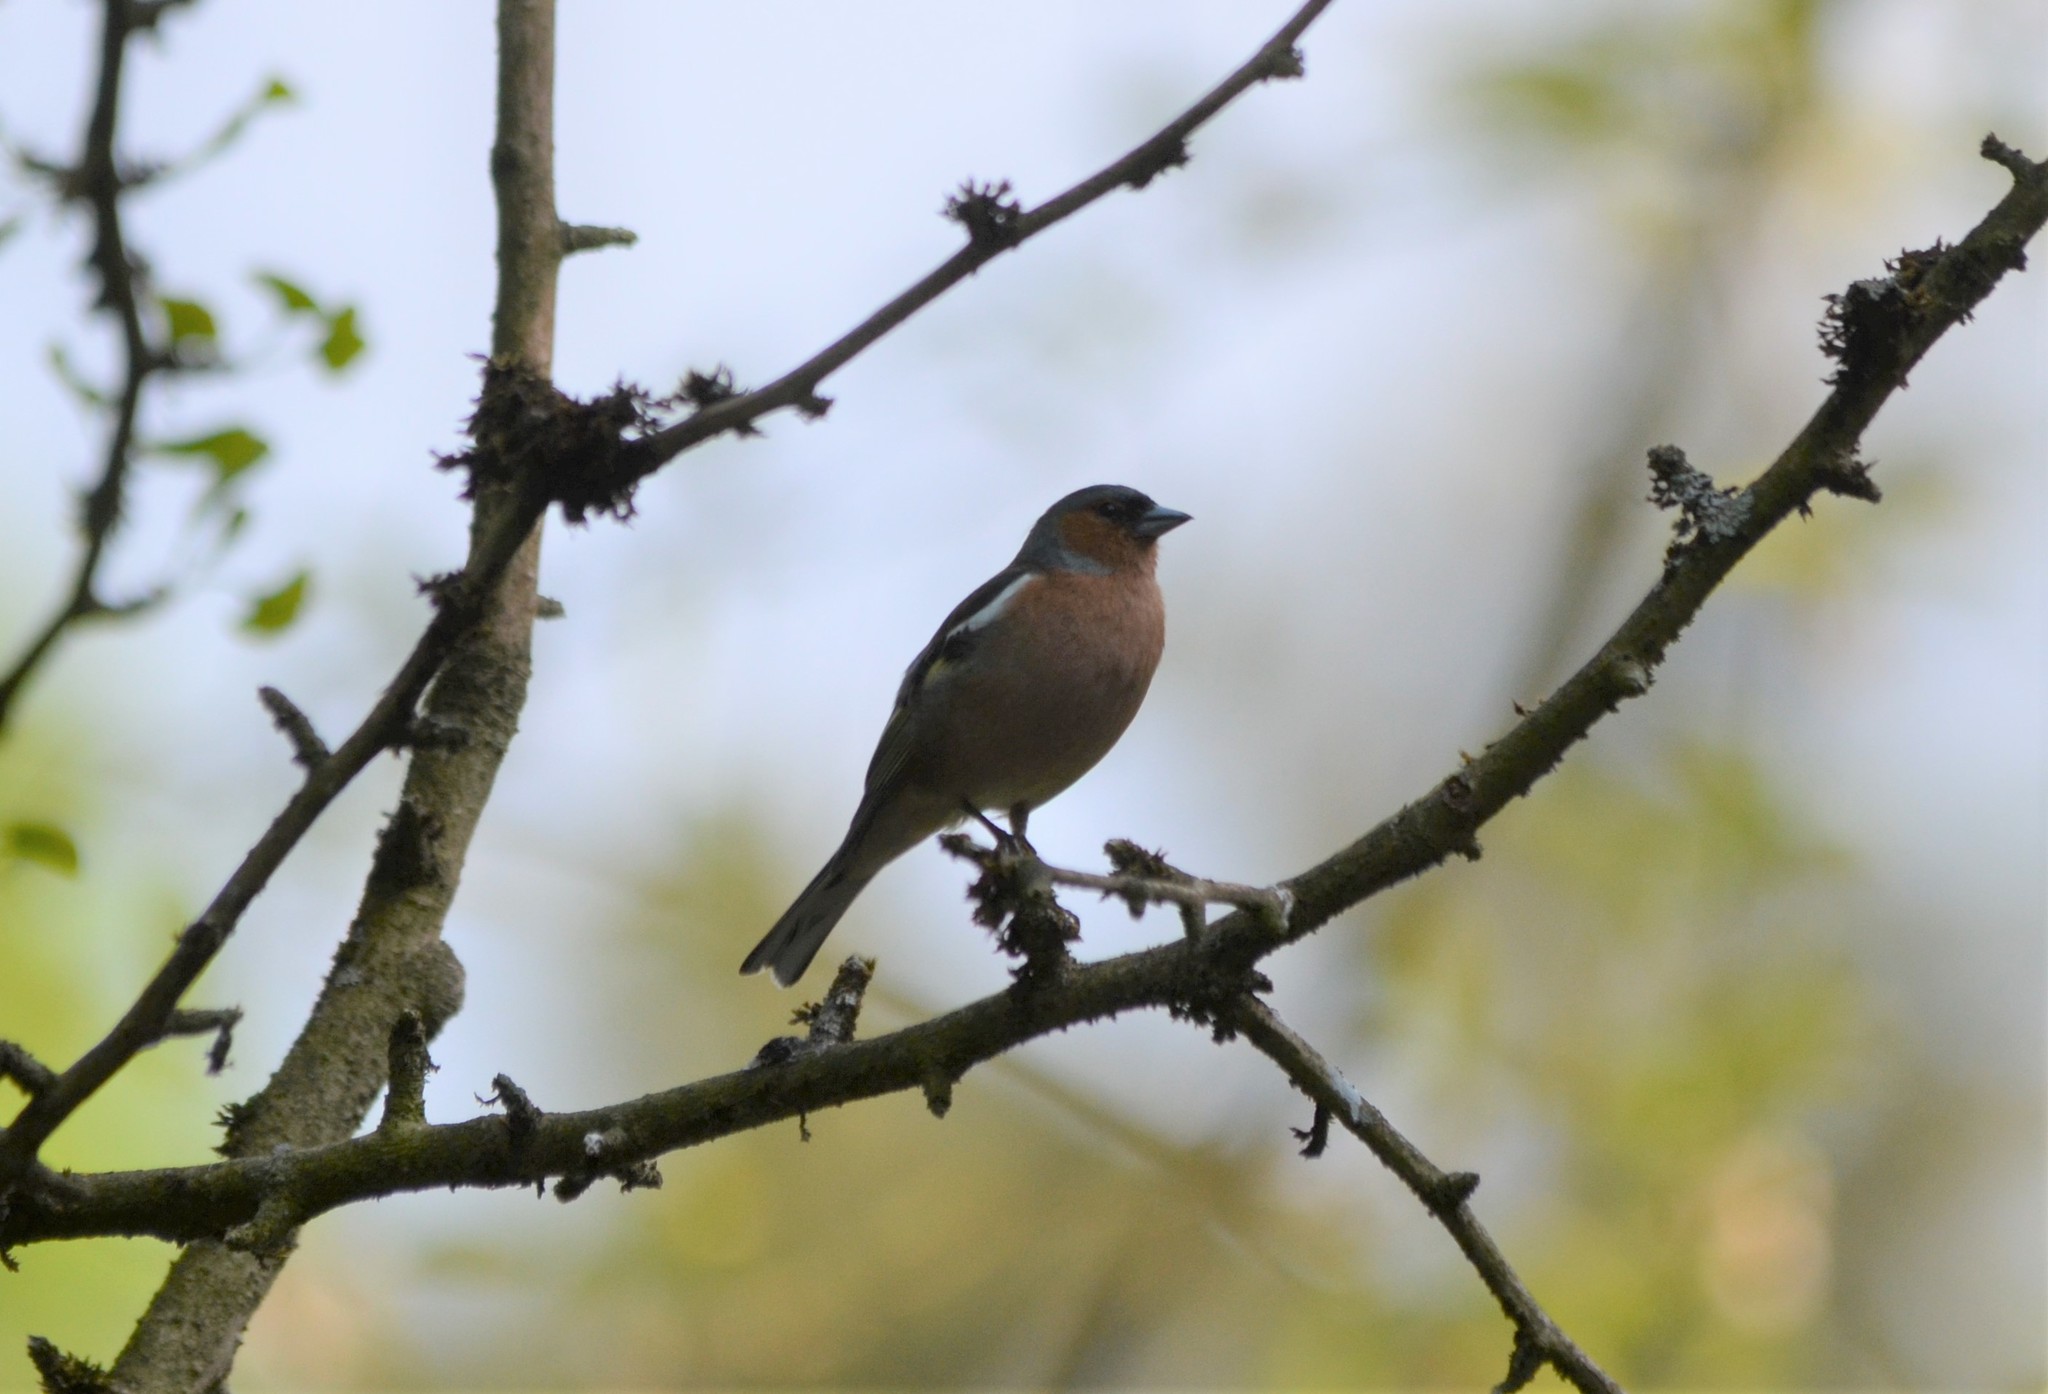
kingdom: Animalia
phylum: Chordata
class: Aves
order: Passeriformes
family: Fringillidae
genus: Fringilla
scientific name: Fringilla coelebs
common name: Common chaffinch
